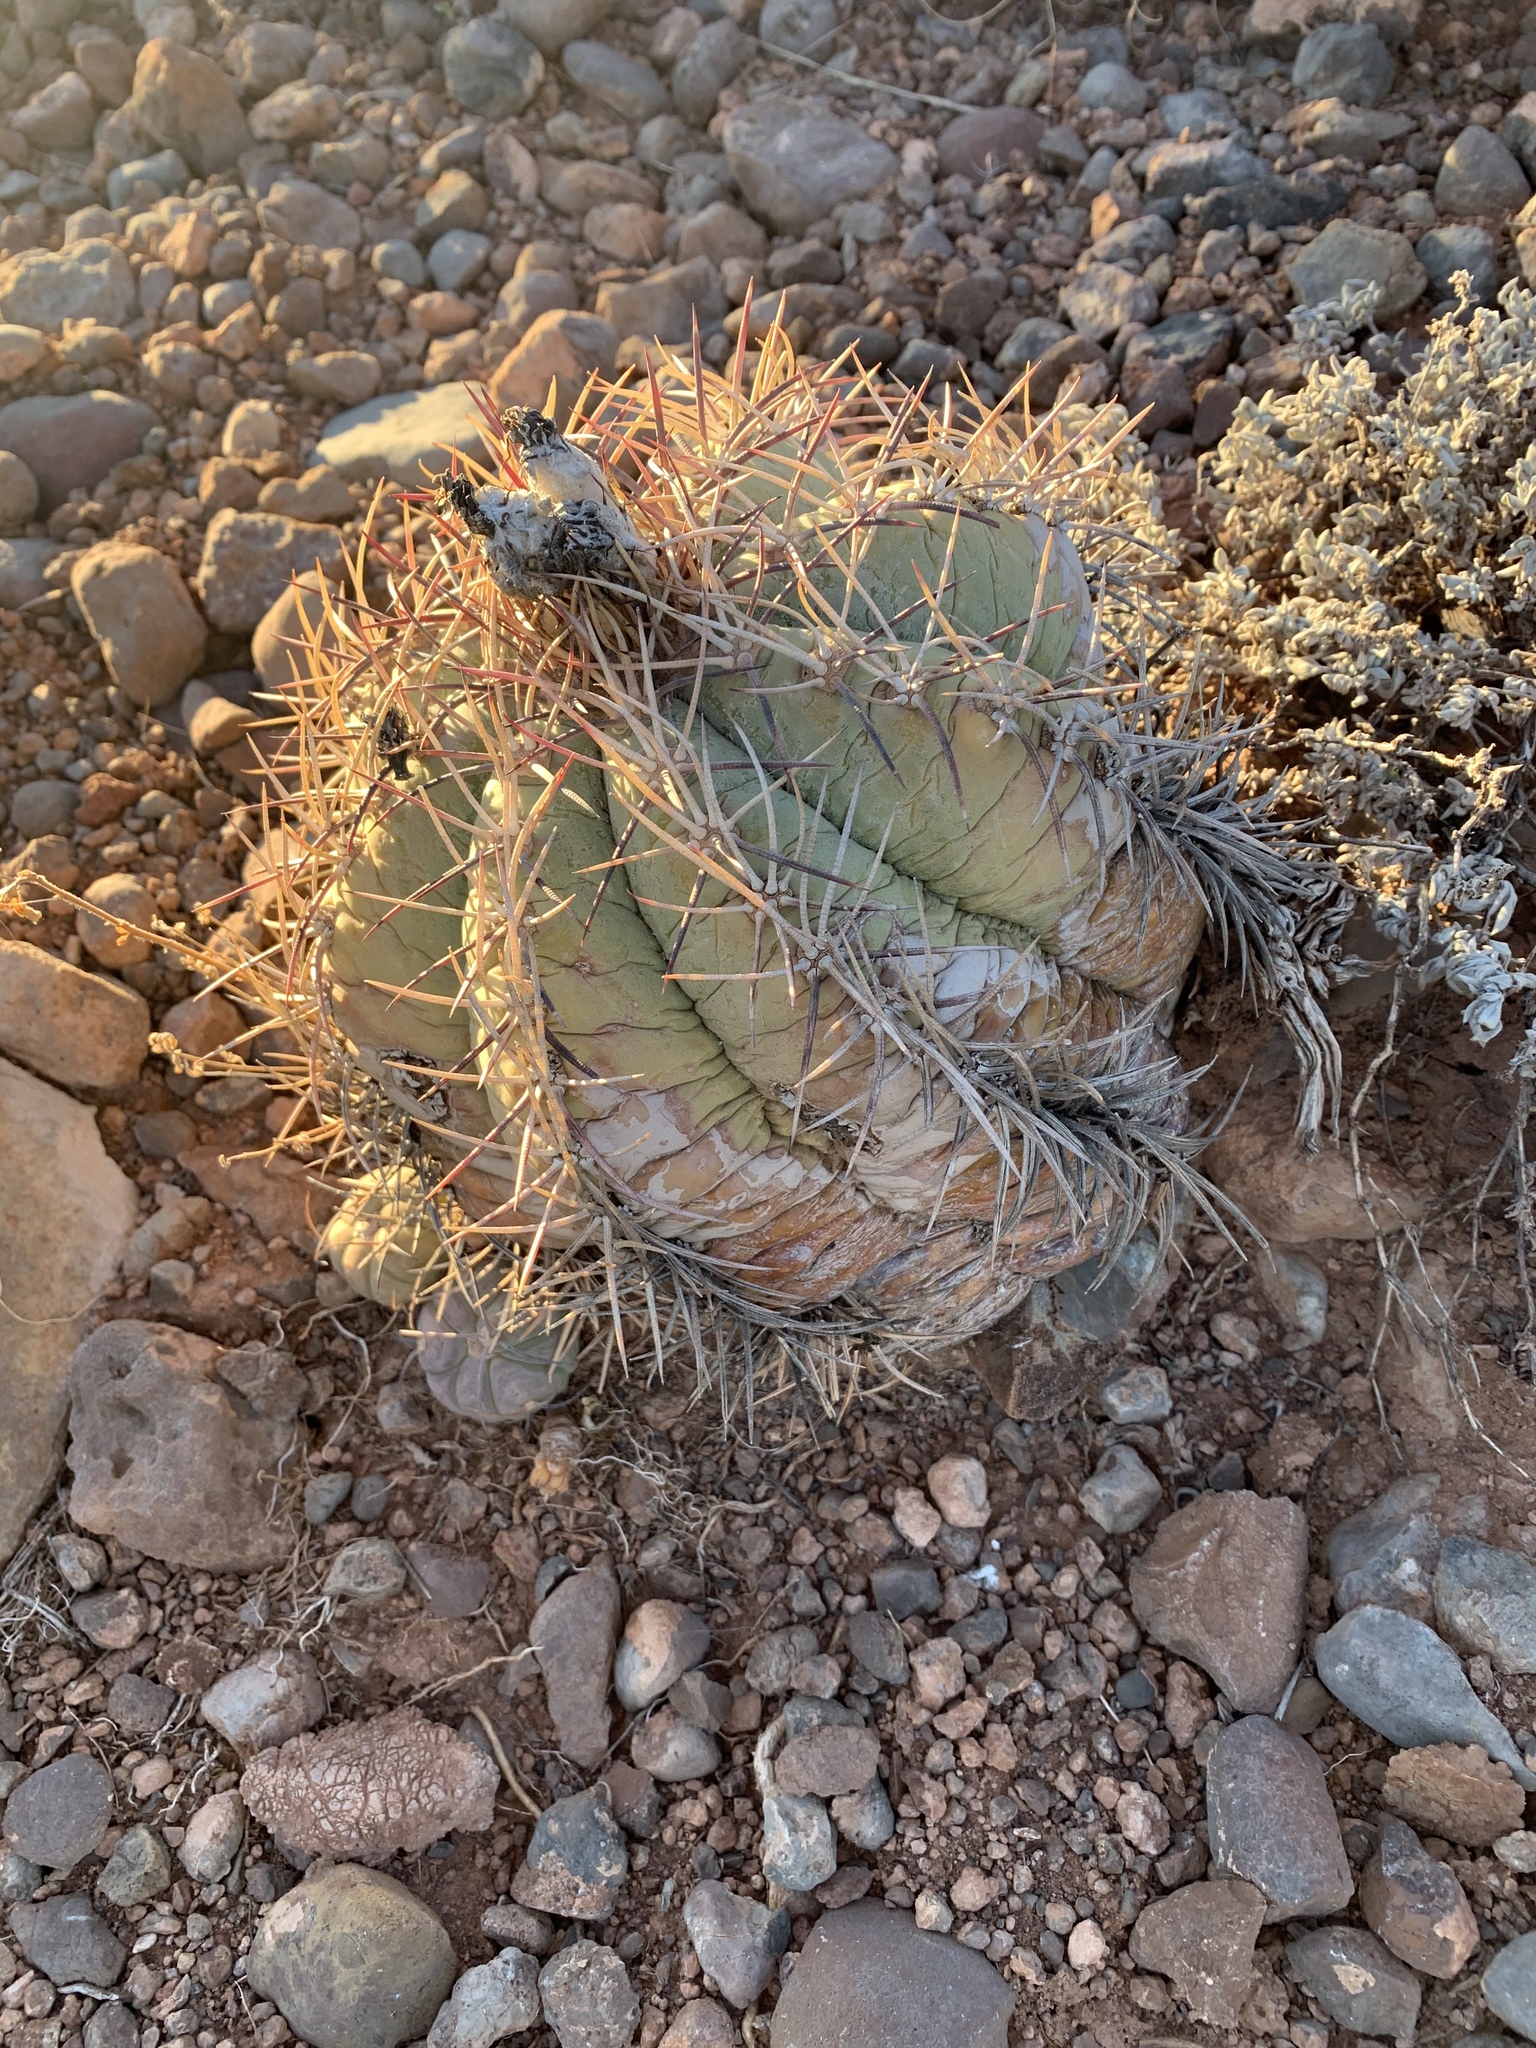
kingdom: Plantae
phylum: Tracheophyta
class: Magnoliopsida
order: Caryophyllales
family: Cactaceae
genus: Echinocactus
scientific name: Echinocactus horizonthalonius
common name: Devilshead
